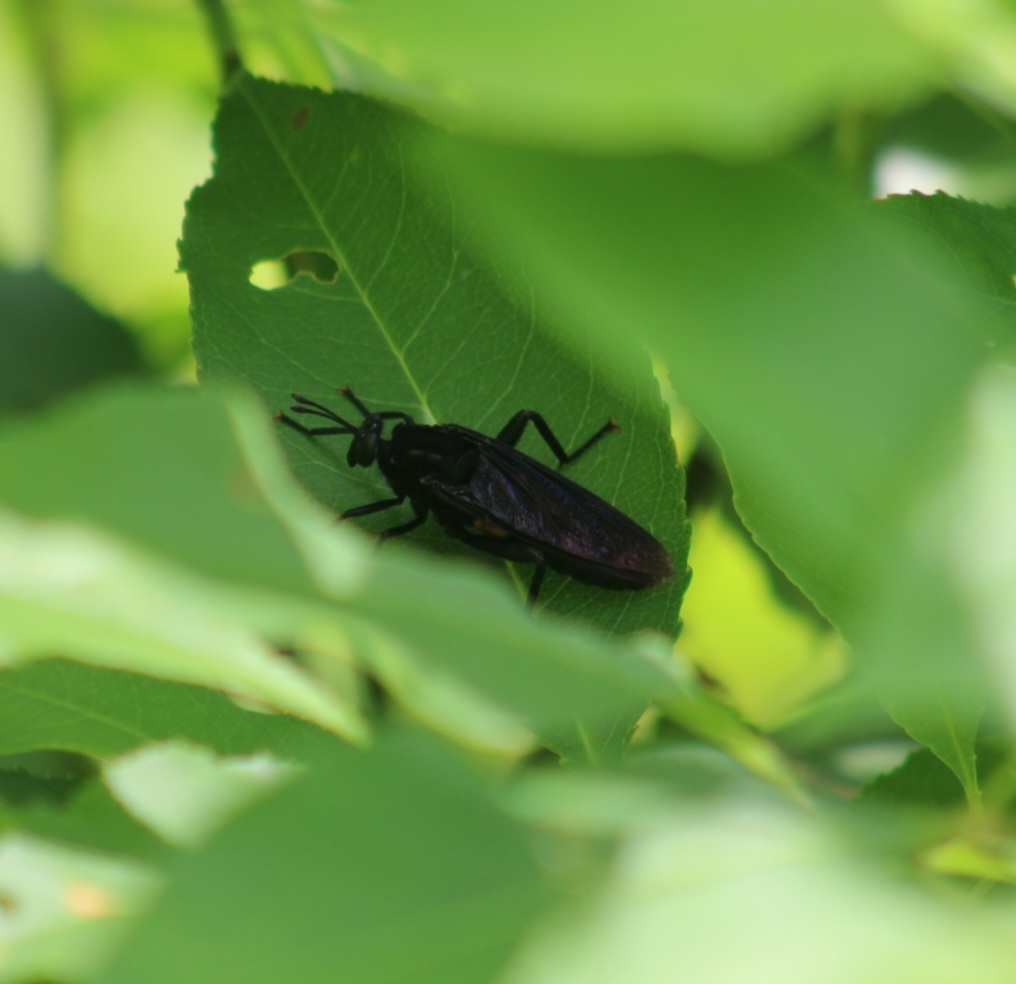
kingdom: Animalia
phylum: Arthropoda
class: Insecta
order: Diptera
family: Mydidae
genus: Mydas
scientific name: Mydas clavatus
